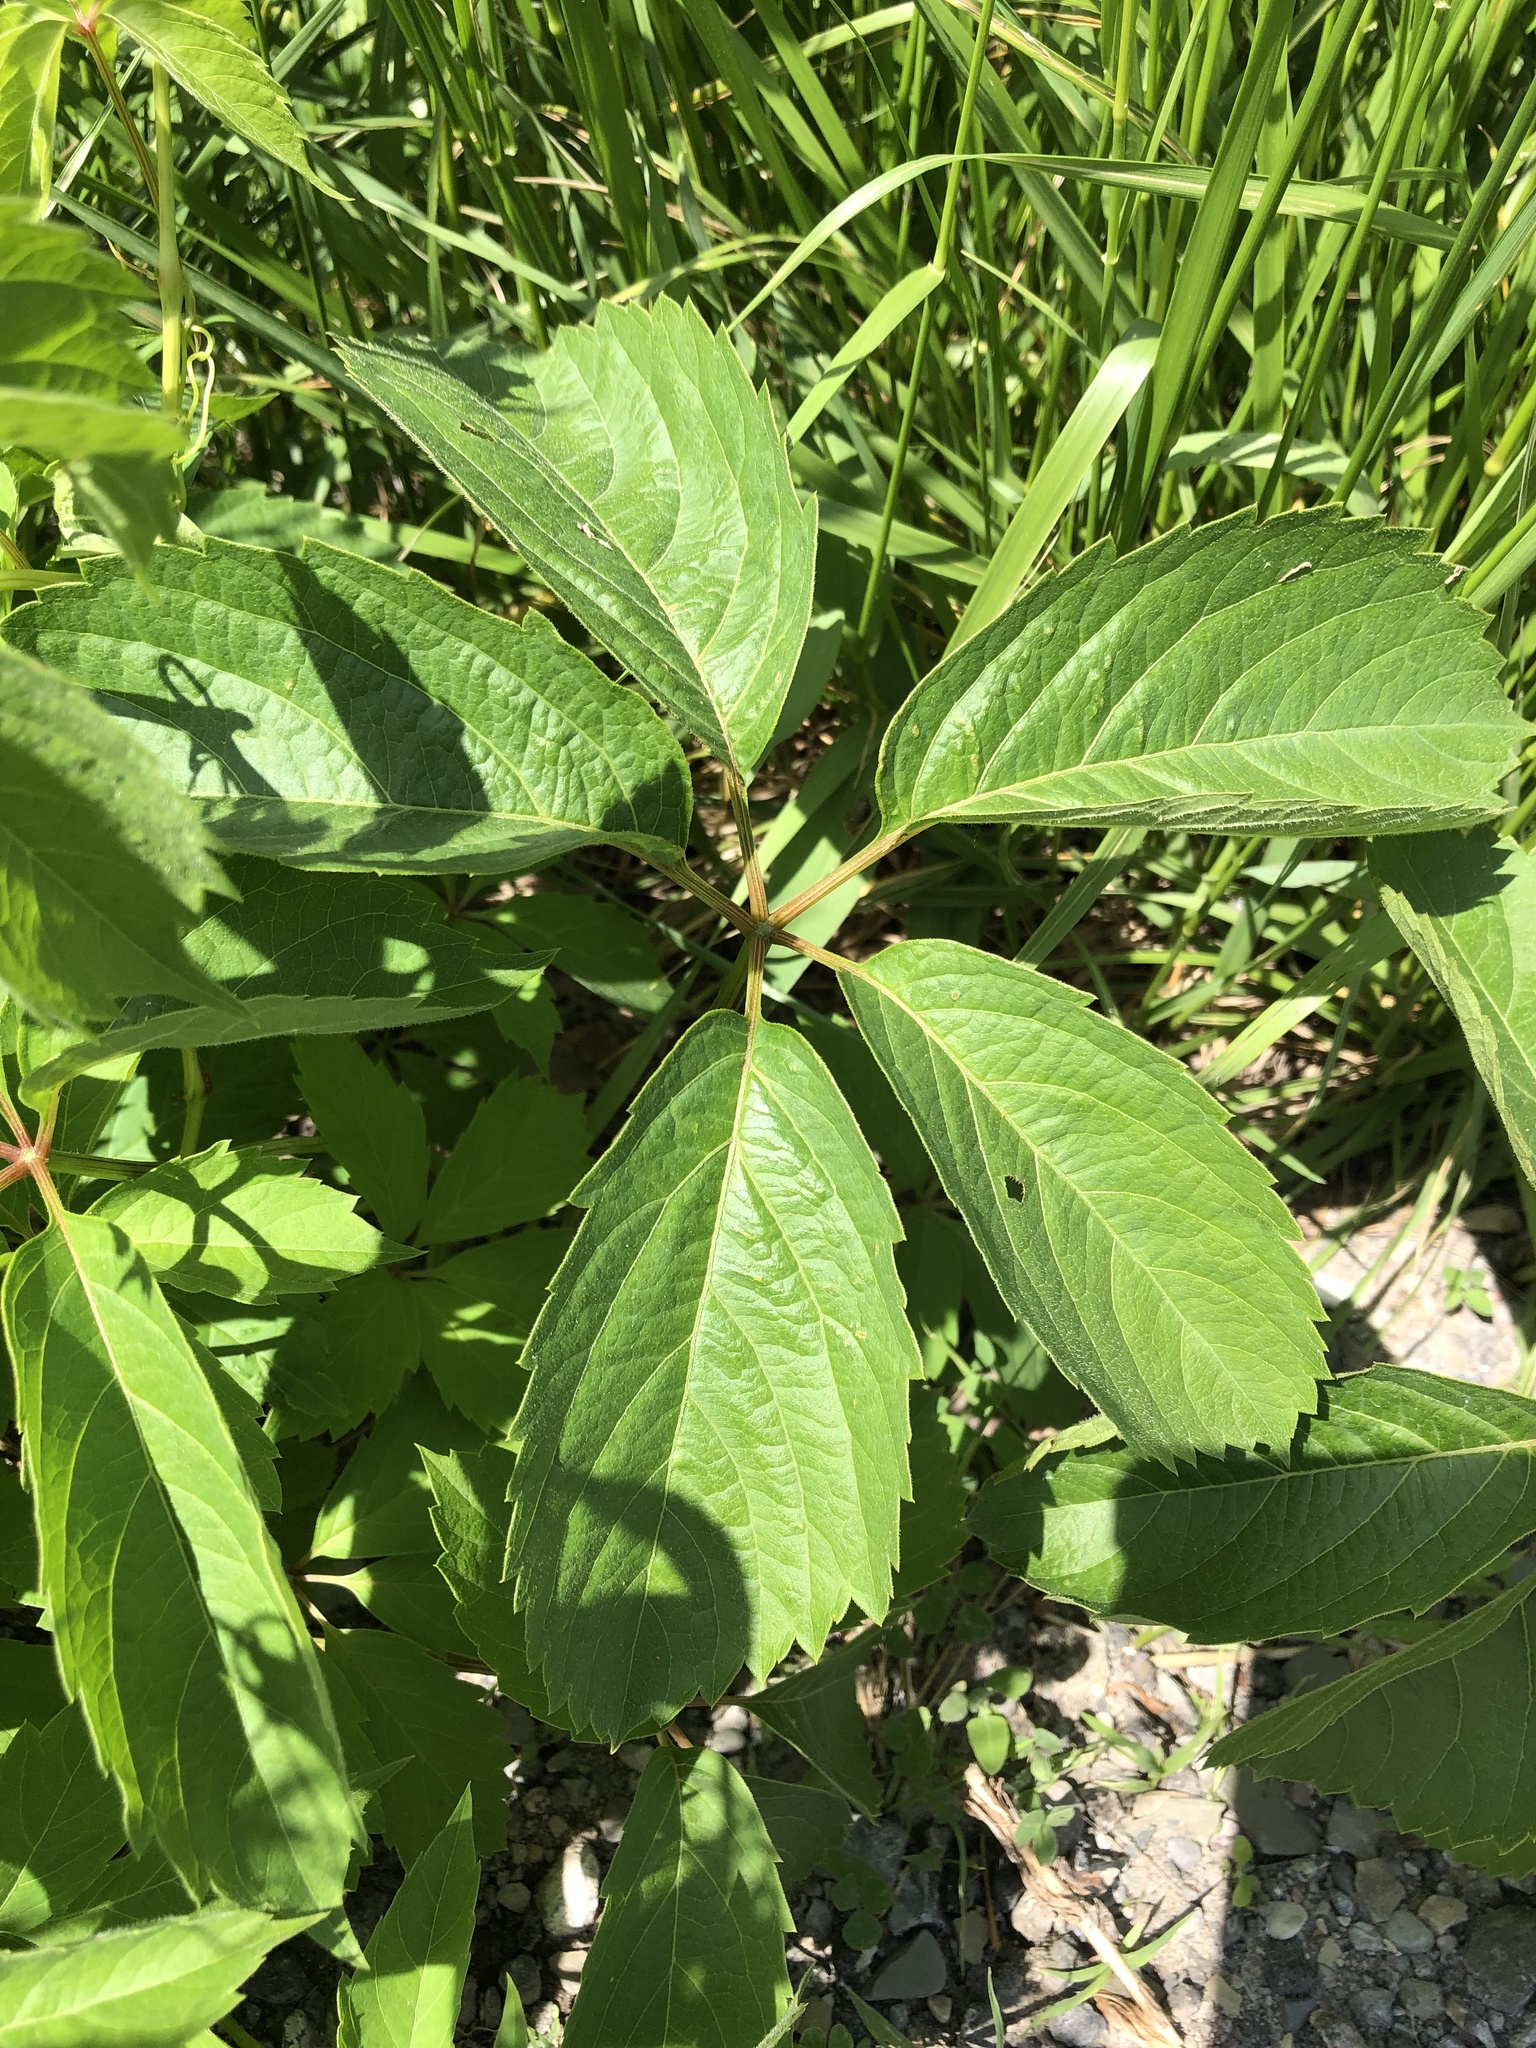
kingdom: Plantae
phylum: Tracheophyta
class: Magnoliopsida
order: Vitales
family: Vitaceae
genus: Parthenocissus
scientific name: Parthenocissus inserta
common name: False virginia-creeper
